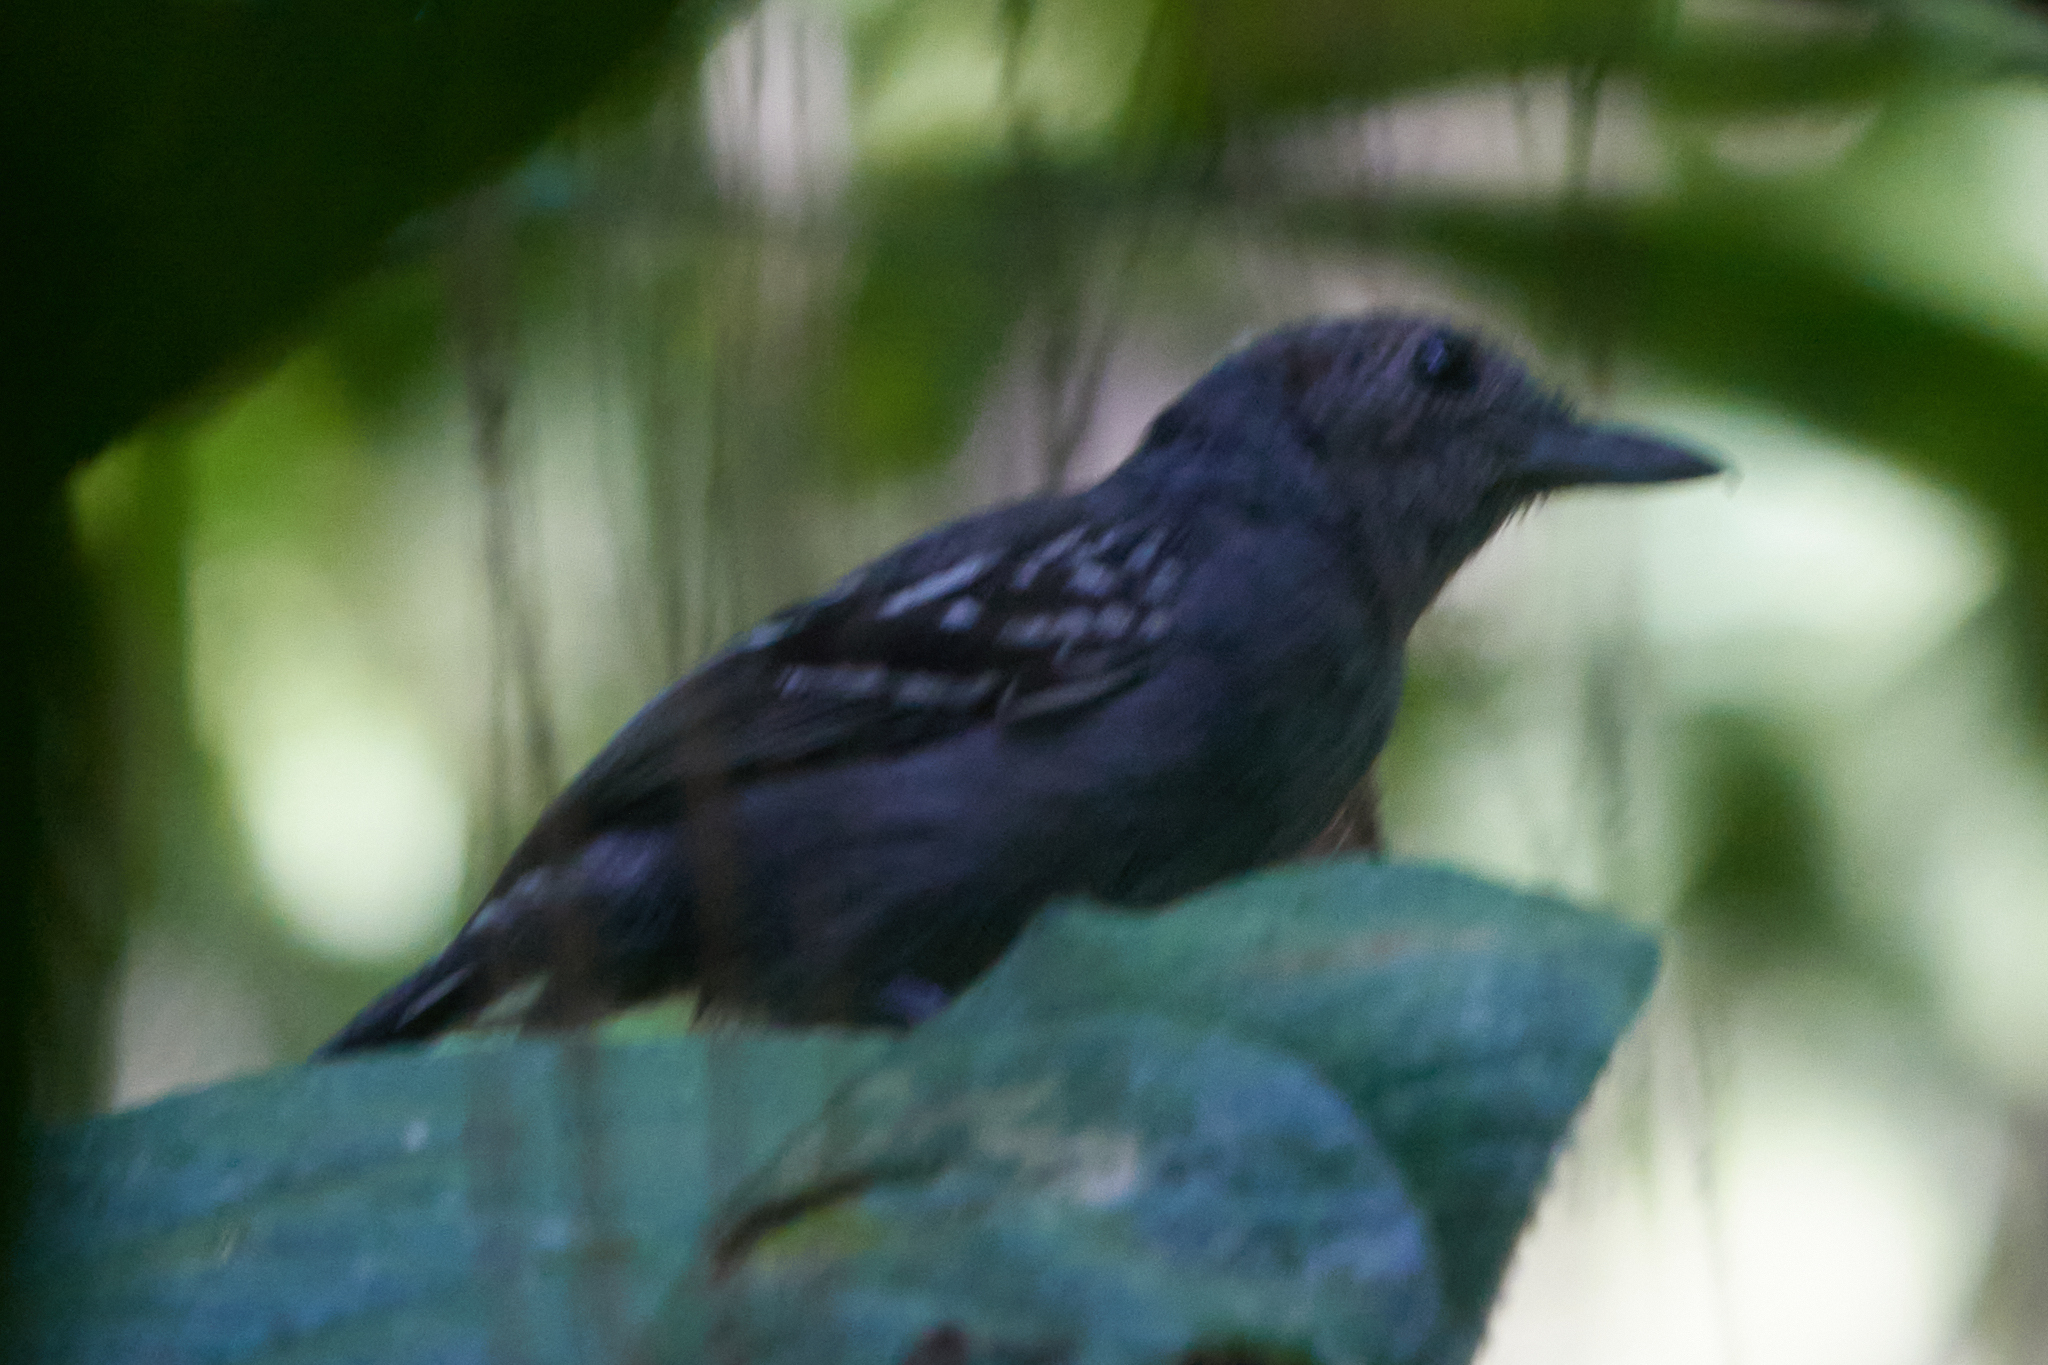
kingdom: Animalia
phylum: Chordata
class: Aves
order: Passeriformes
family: Thamnophilidae
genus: Thamnophilus
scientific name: Thamnophilus atrinucha
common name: Black-crowned antshrike
